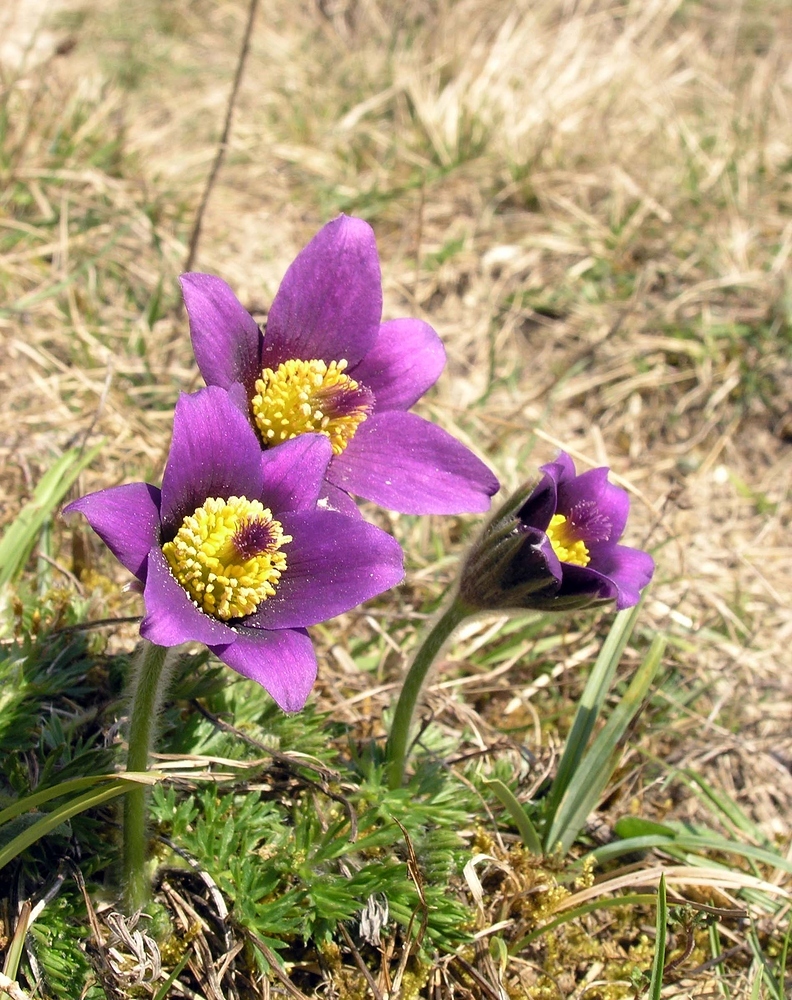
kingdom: Plantae
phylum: Tracheophyta
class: Magnoliopsida
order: Ranunculales
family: Ranunculaceae
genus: Pulsatilla
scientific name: Pulsatilla vulgaris
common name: Pasqueflower
